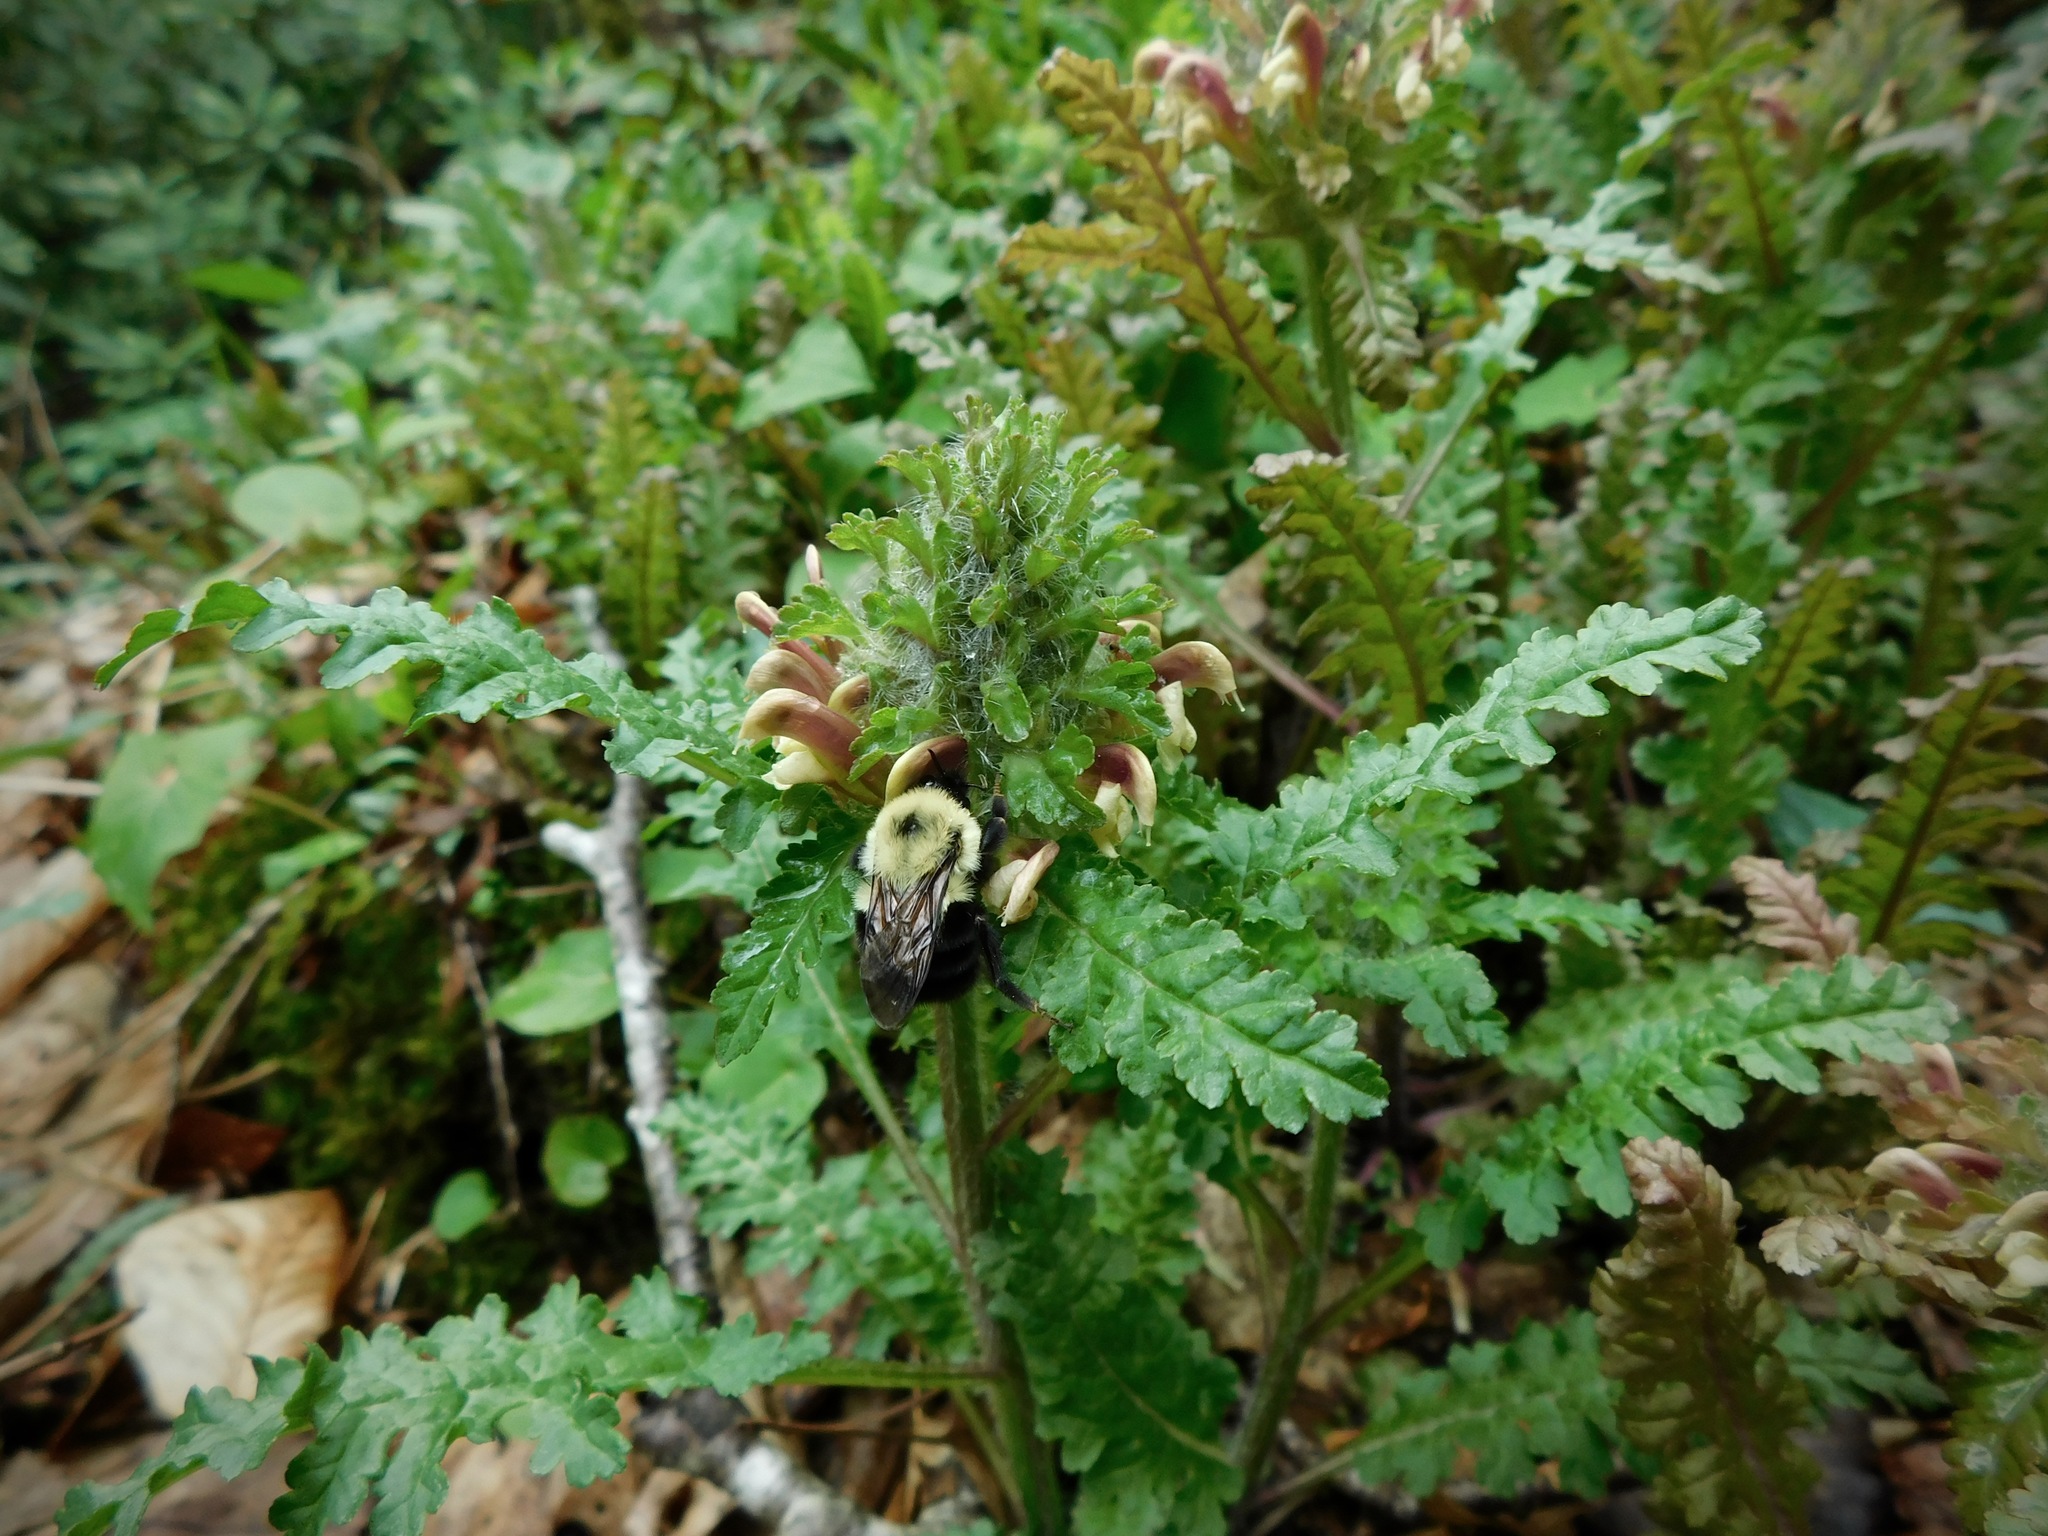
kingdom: Plantae
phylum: Tracheophyta
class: Magnoliopsida
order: Lamiales
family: Orobanchaceae
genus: Pedicularis
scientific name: Pedicularis canadensis
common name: Early lousewort
